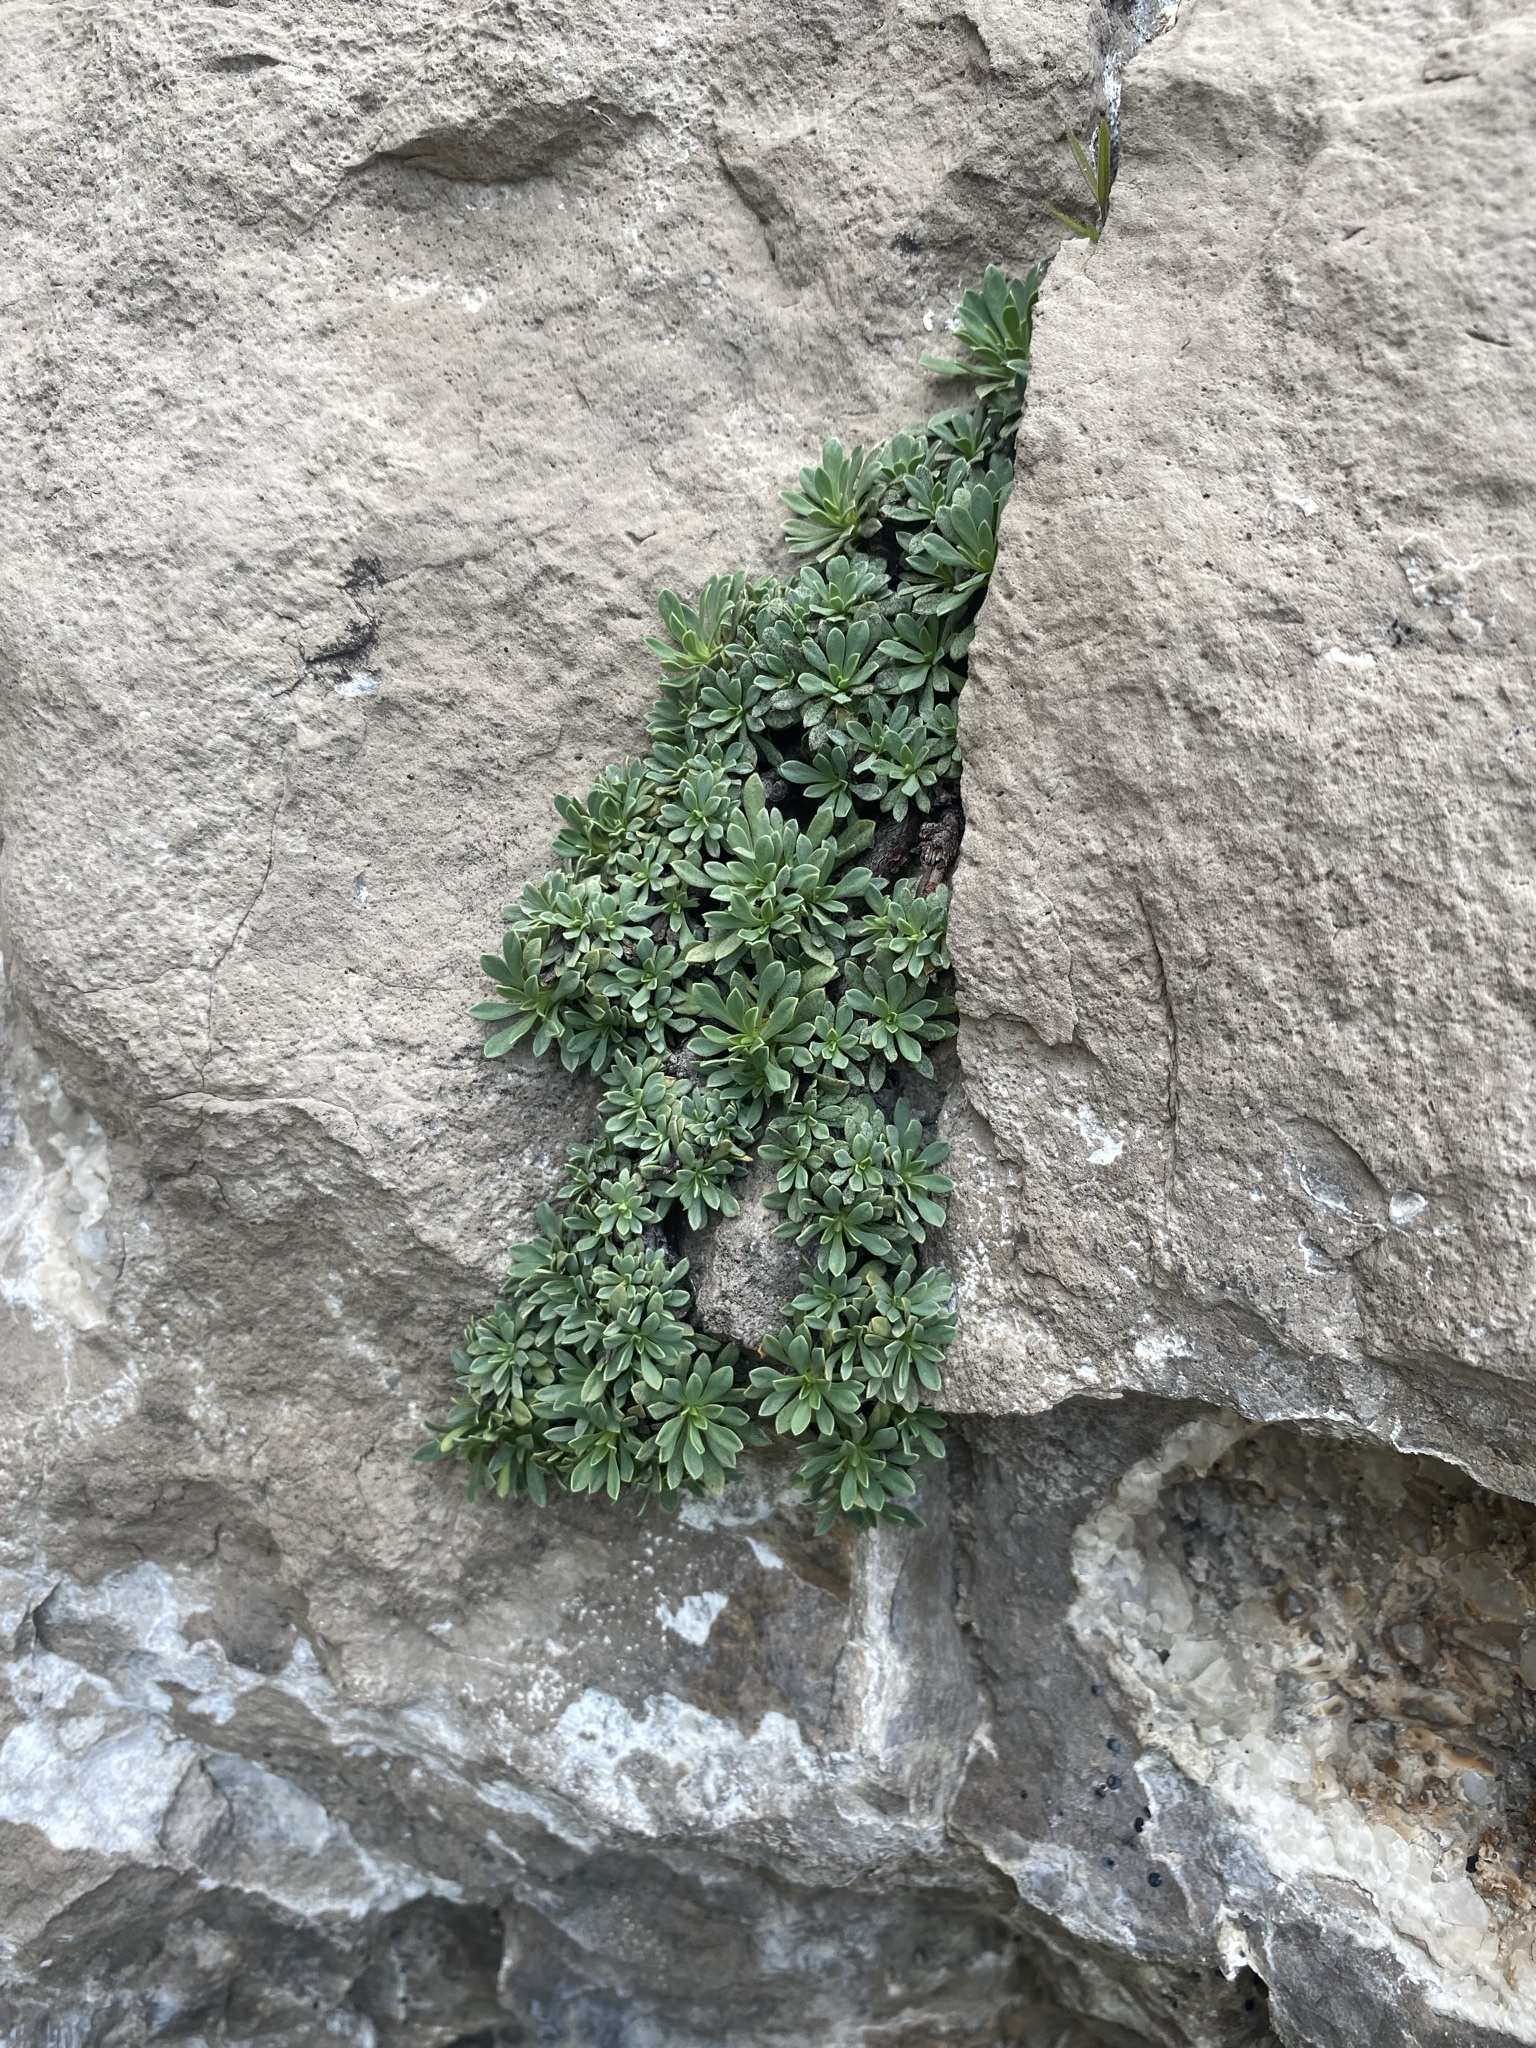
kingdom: Plantae
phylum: Tracheophyta
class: Magnoliopsida
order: Rosales
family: Rosaceae
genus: Petrophytum
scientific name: Petrophytum caespitosum
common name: Mat rockspirea
